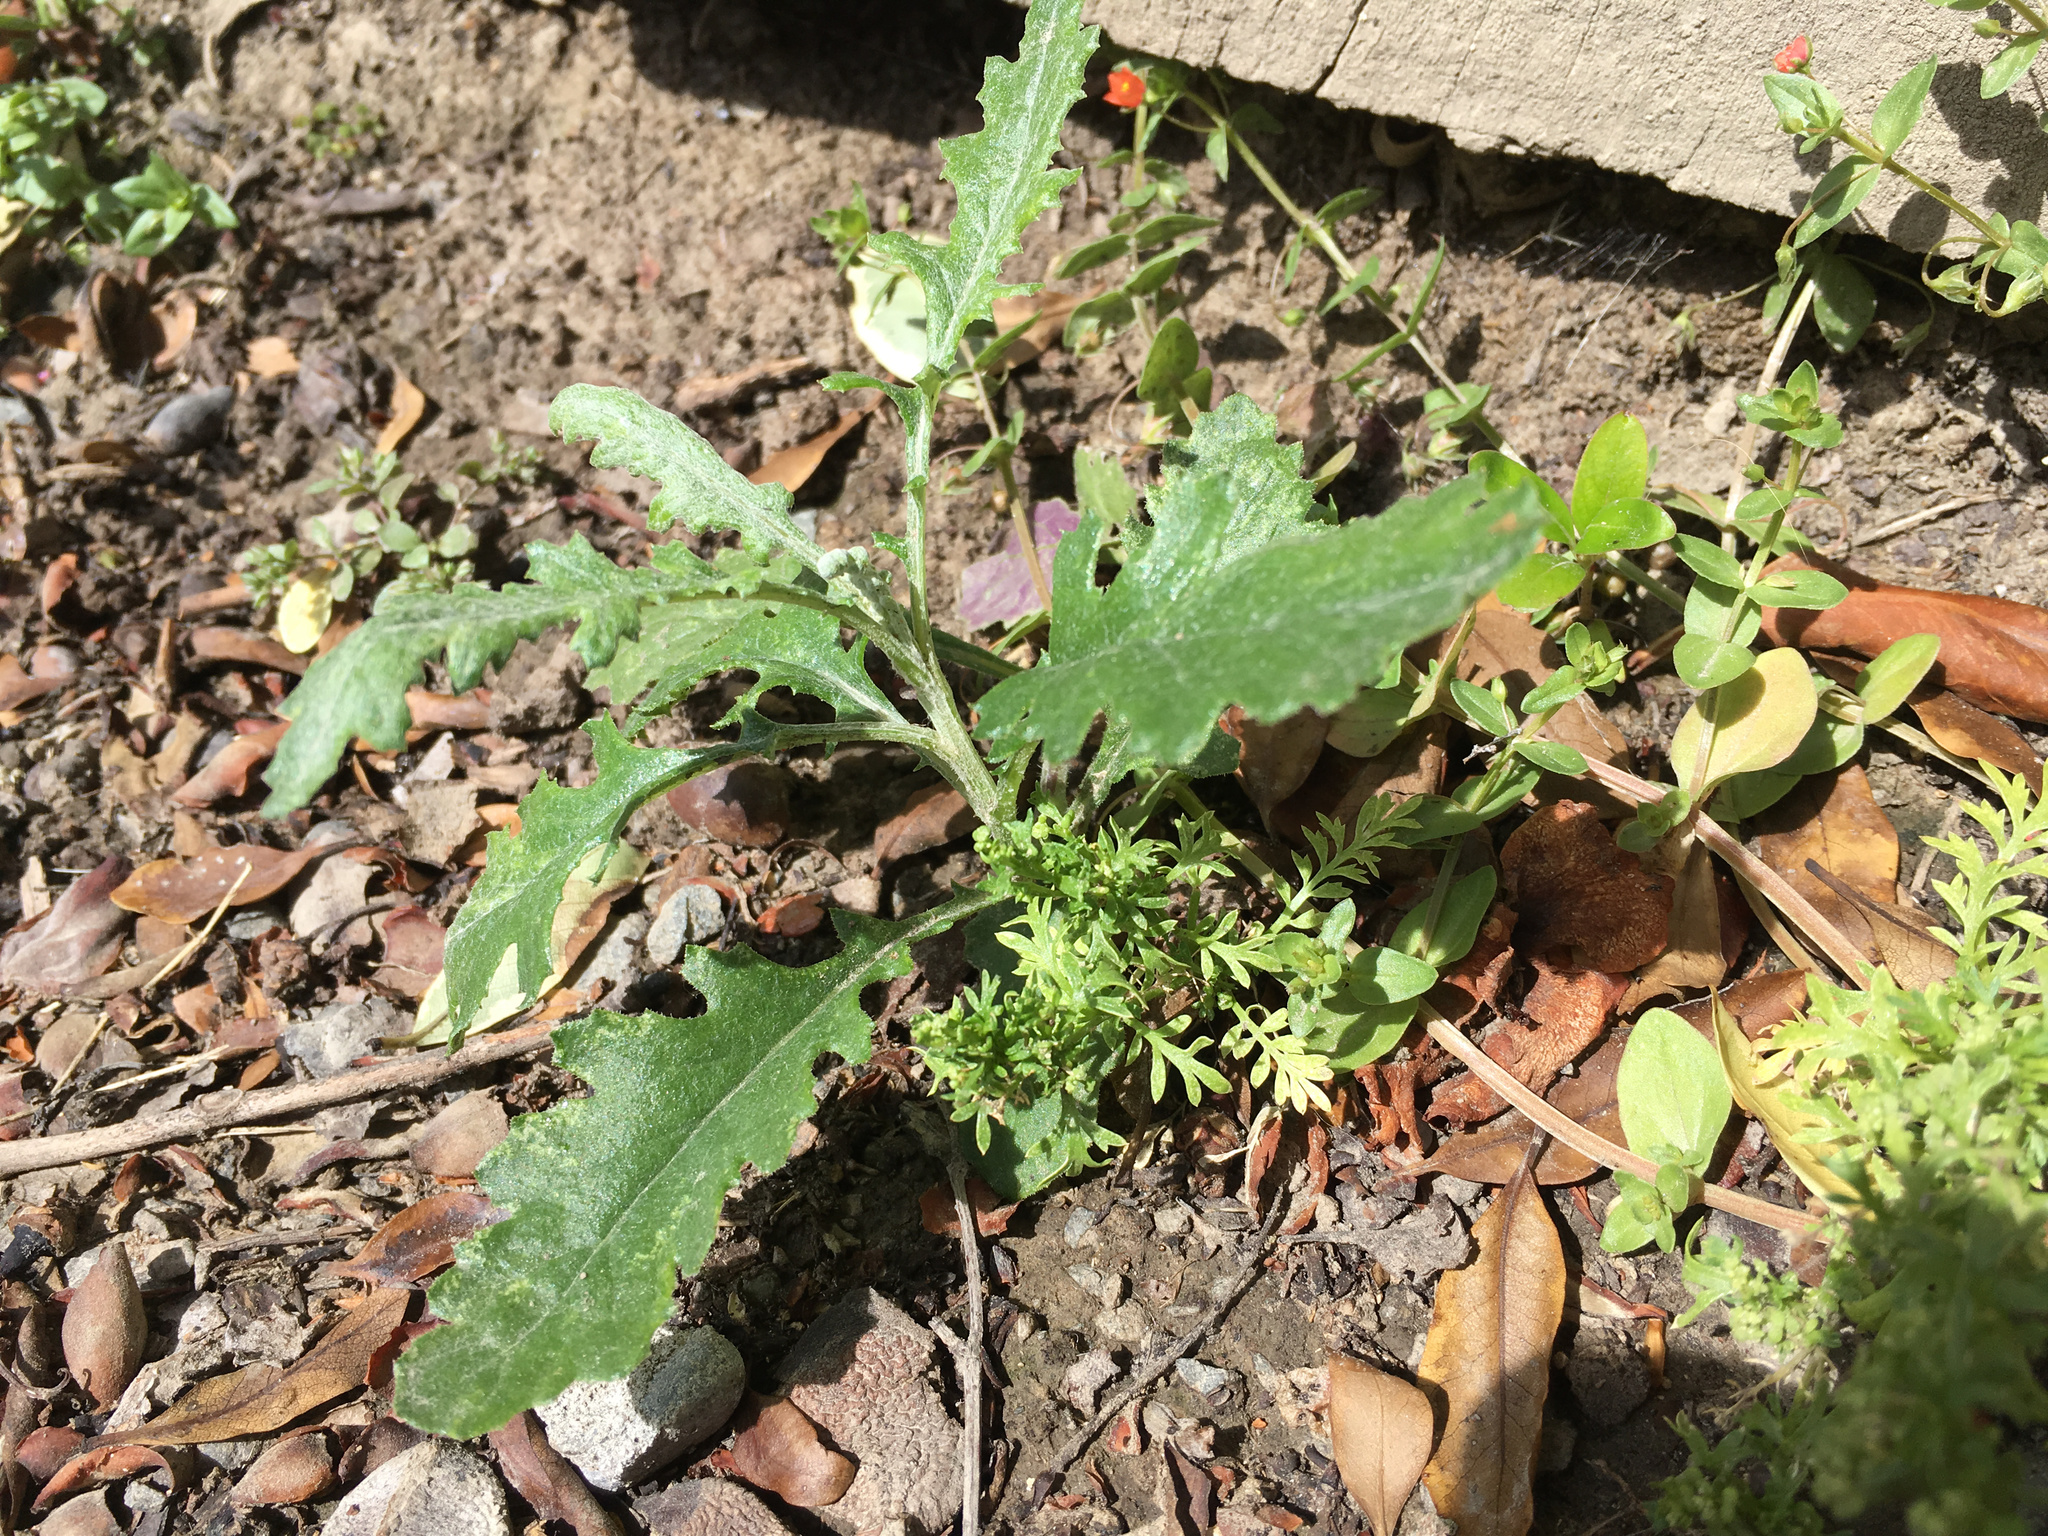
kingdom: Plantae
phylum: Tracheophyta
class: Magnoliopsida
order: Asterales
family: Asteraceae
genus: Senecio
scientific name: Senecio glomeratus
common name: Cutleaf burnweed
